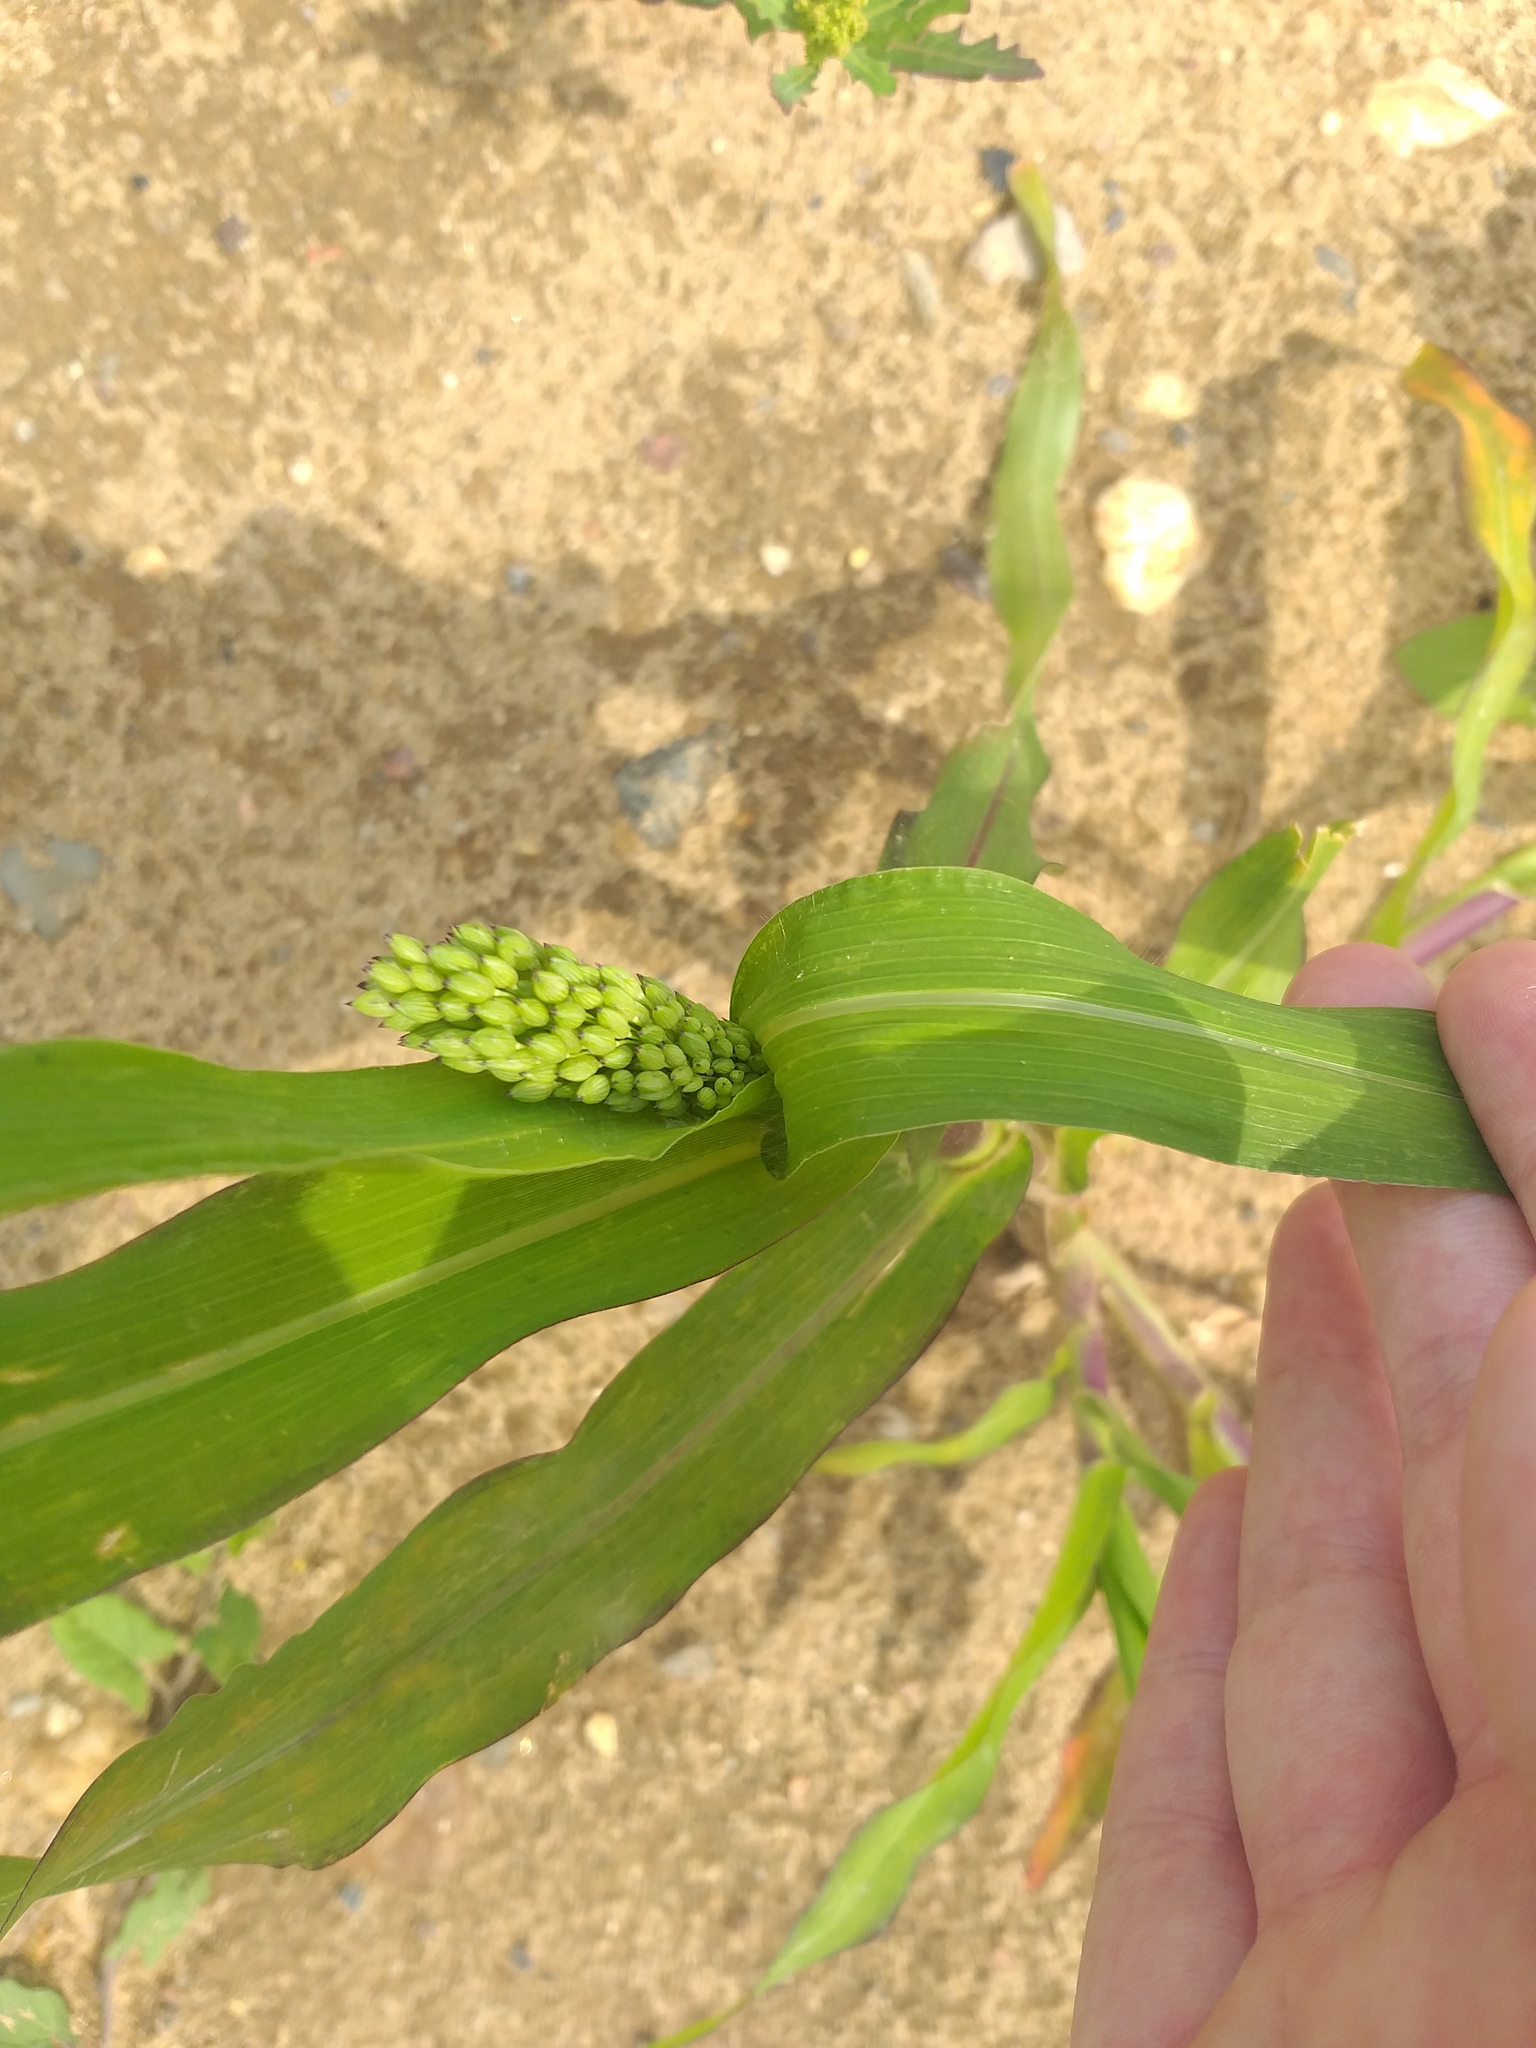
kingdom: Plantae
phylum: Tracheophyta
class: Liliopsida
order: Poales
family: Poaceae
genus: Panicum
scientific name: Panicum miliaceum
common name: Common millet
